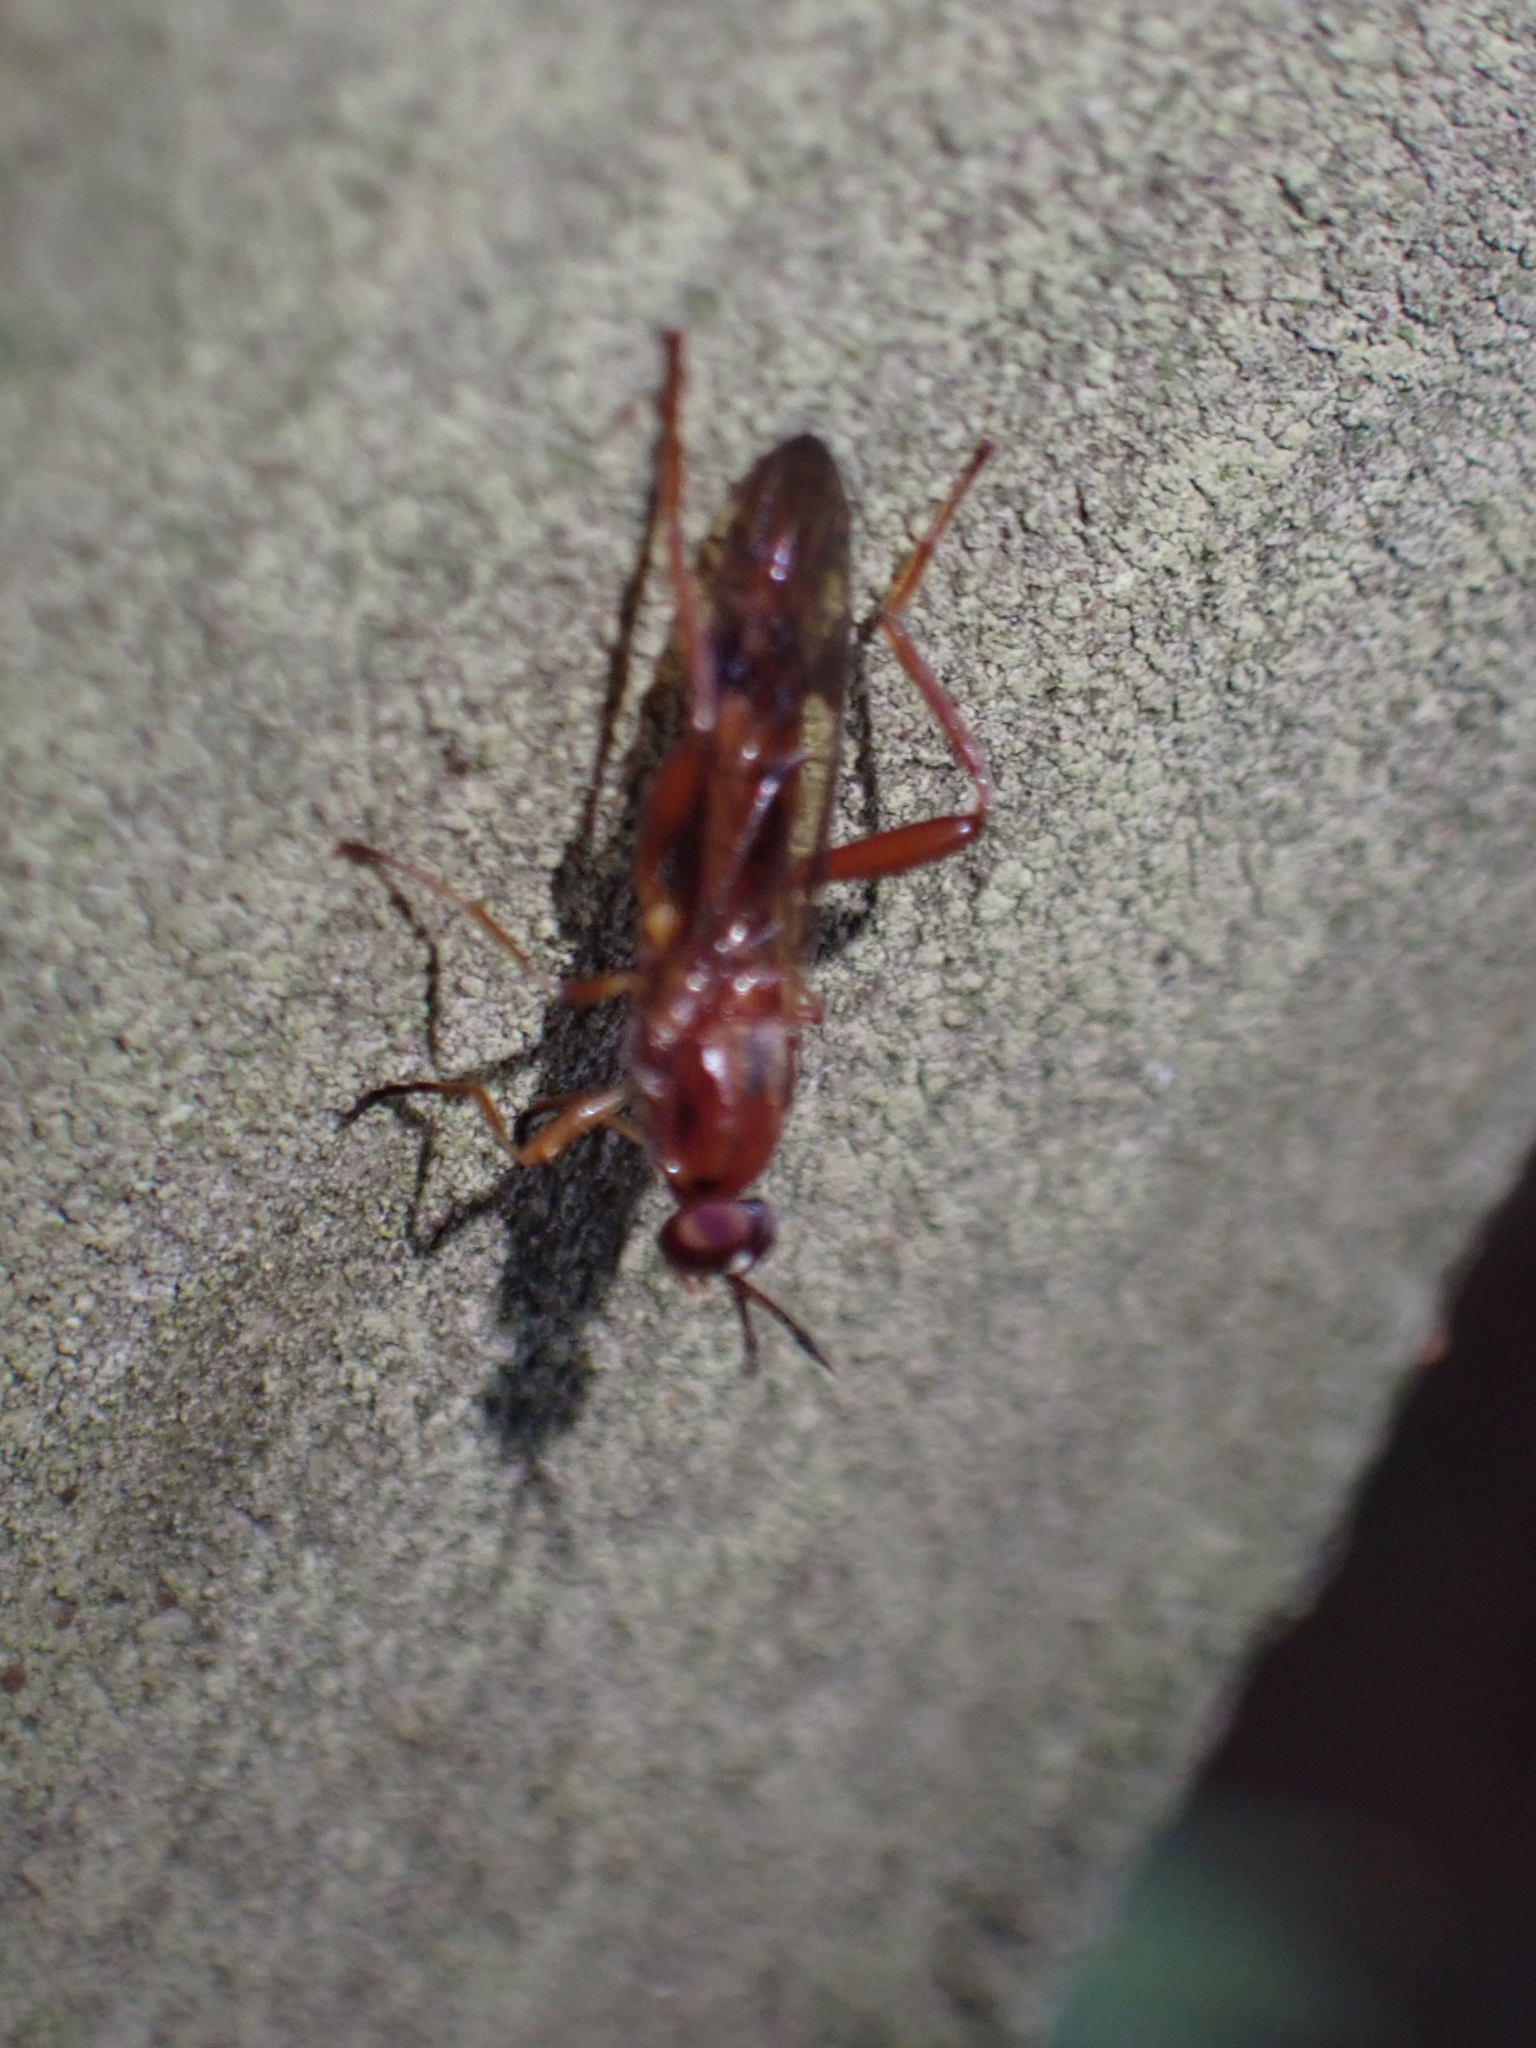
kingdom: Animalia
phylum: Arthropoda
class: Insecta
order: Diptera
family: Stratiomyidae
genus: Benhamyia
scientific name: Benhamyia straznitzkii
